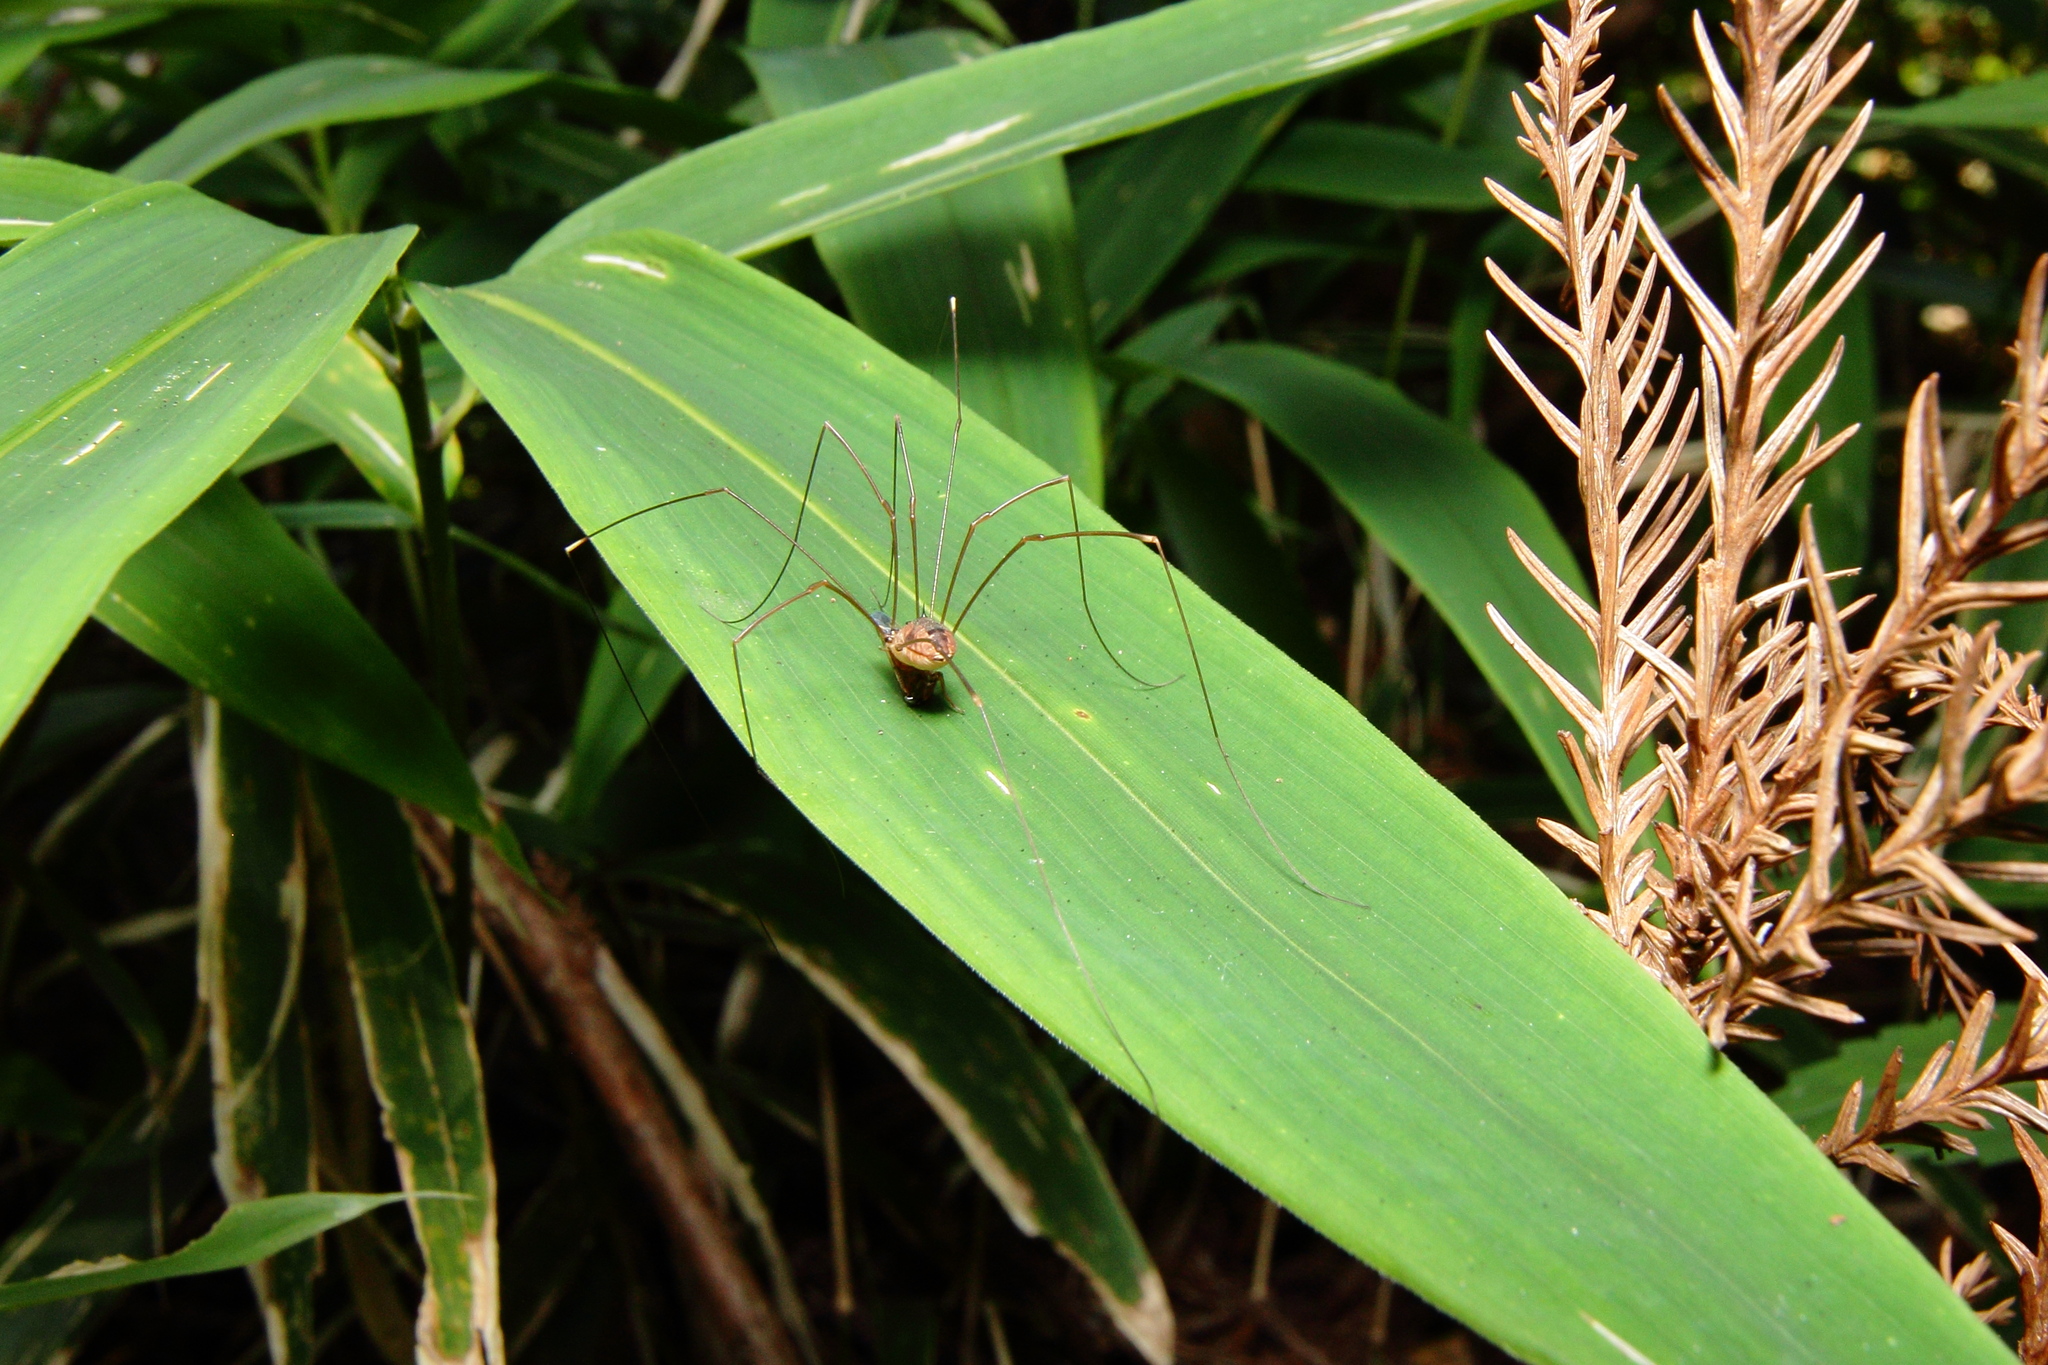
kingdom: Animalia
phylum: Arthropoda
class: Arachnida
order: Opiliones
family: Sclerosomatidae
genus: Gagrellula
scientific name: Gagrellula ferruginea
